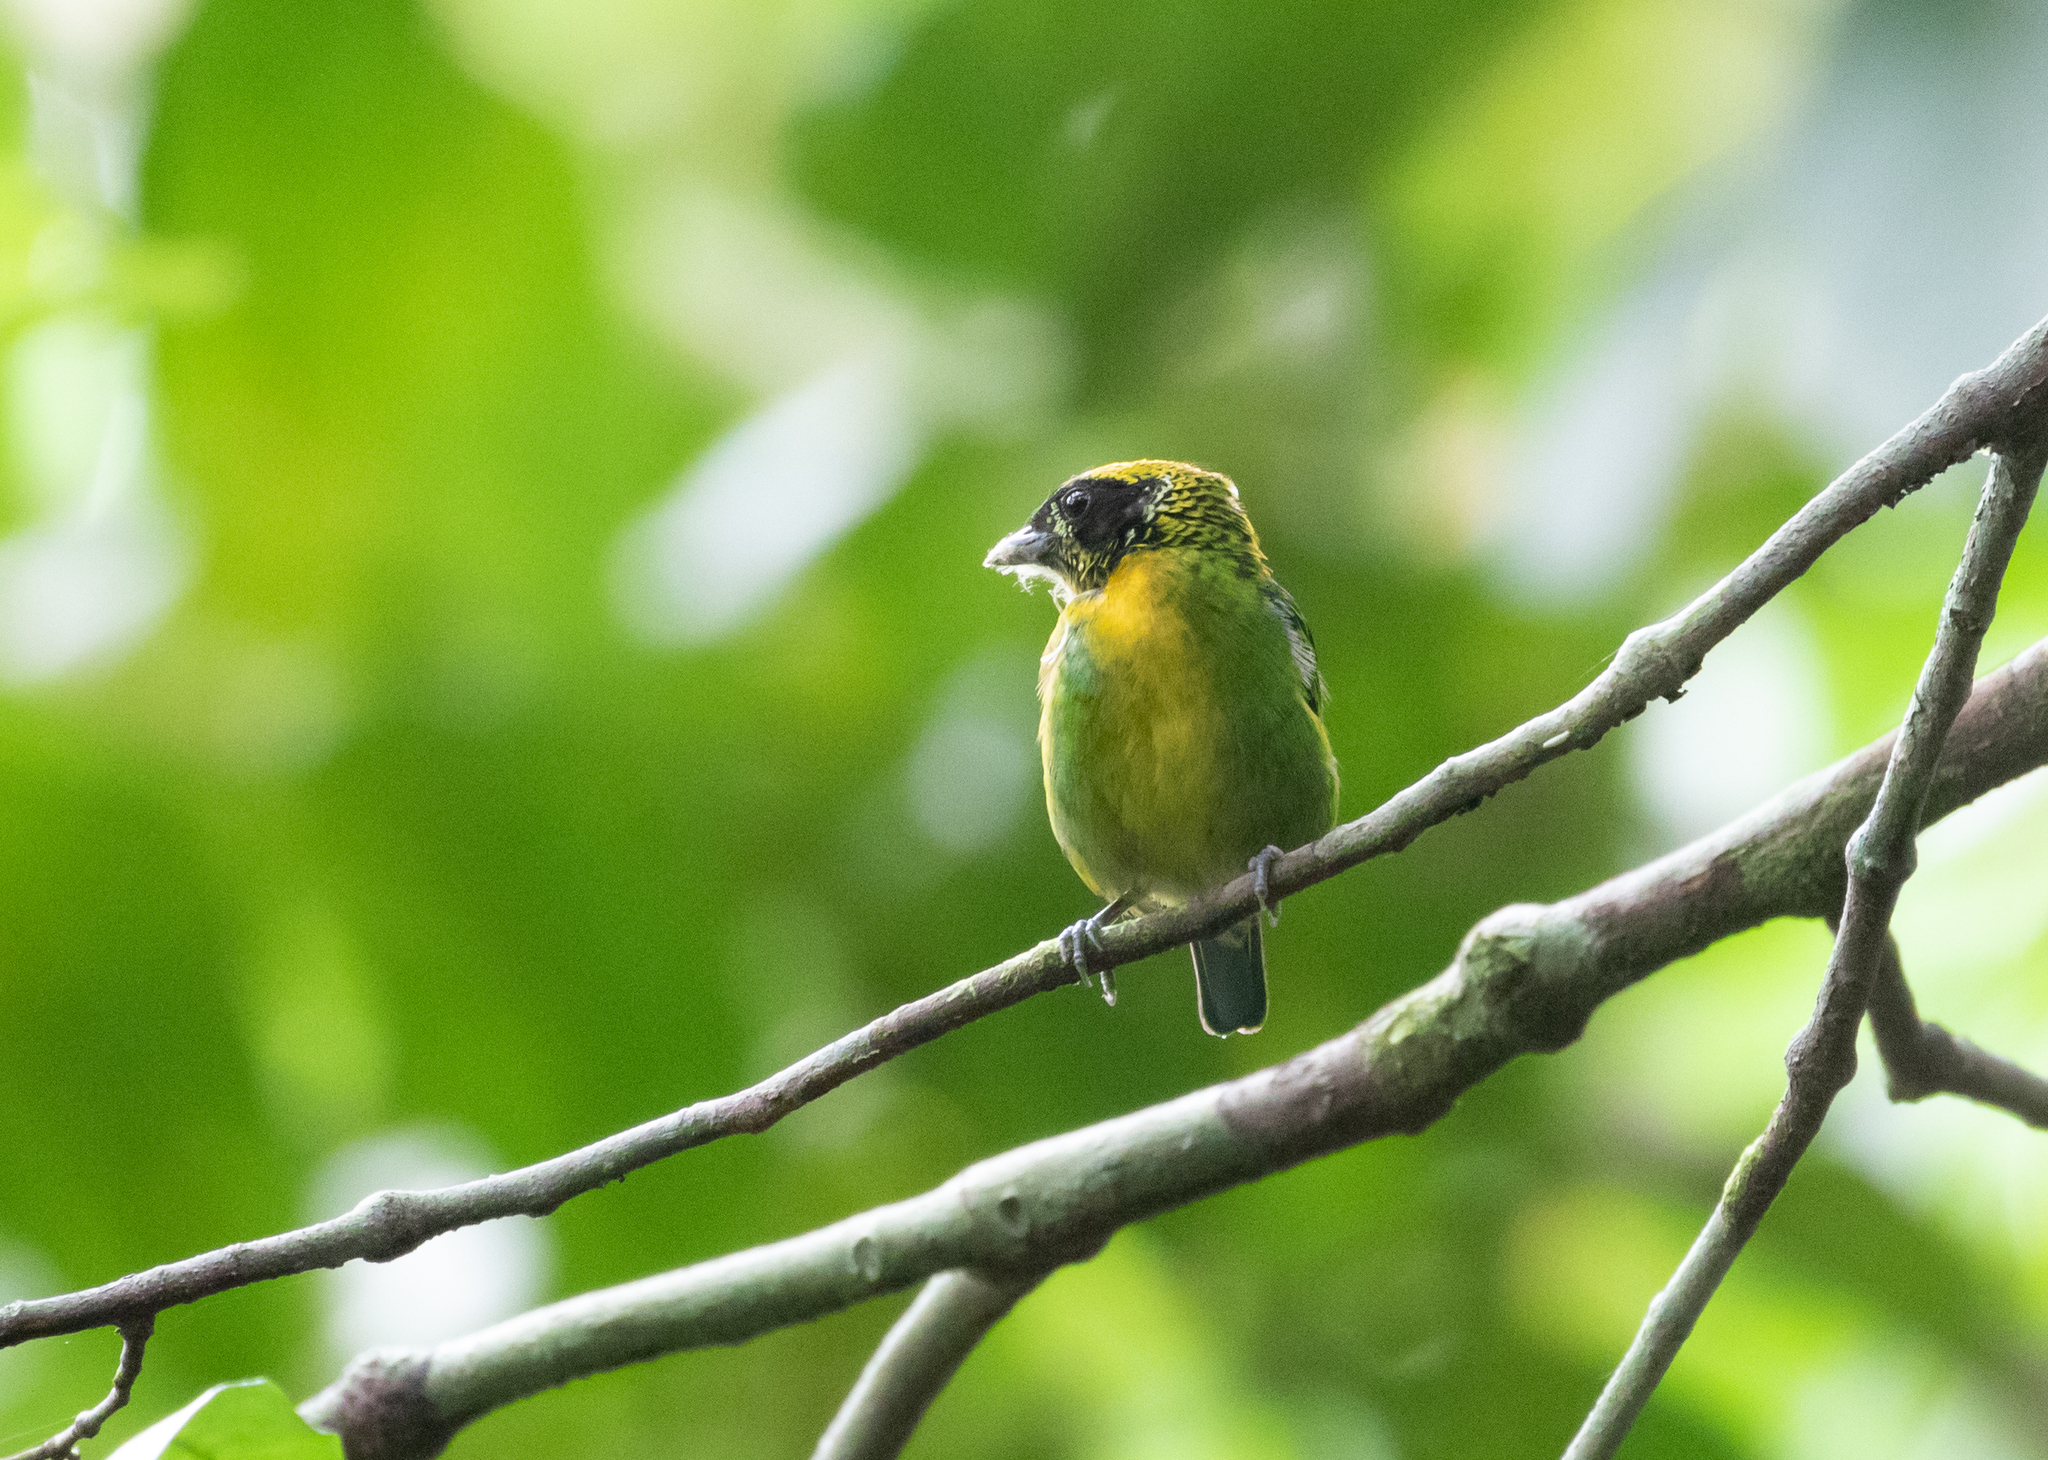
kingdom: Animalia
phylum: Chordata
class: Aves
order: Passeriformes
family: Thraupidae
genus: Tangara
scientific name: Tangara schrankii
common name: Green-and-gold tanager
